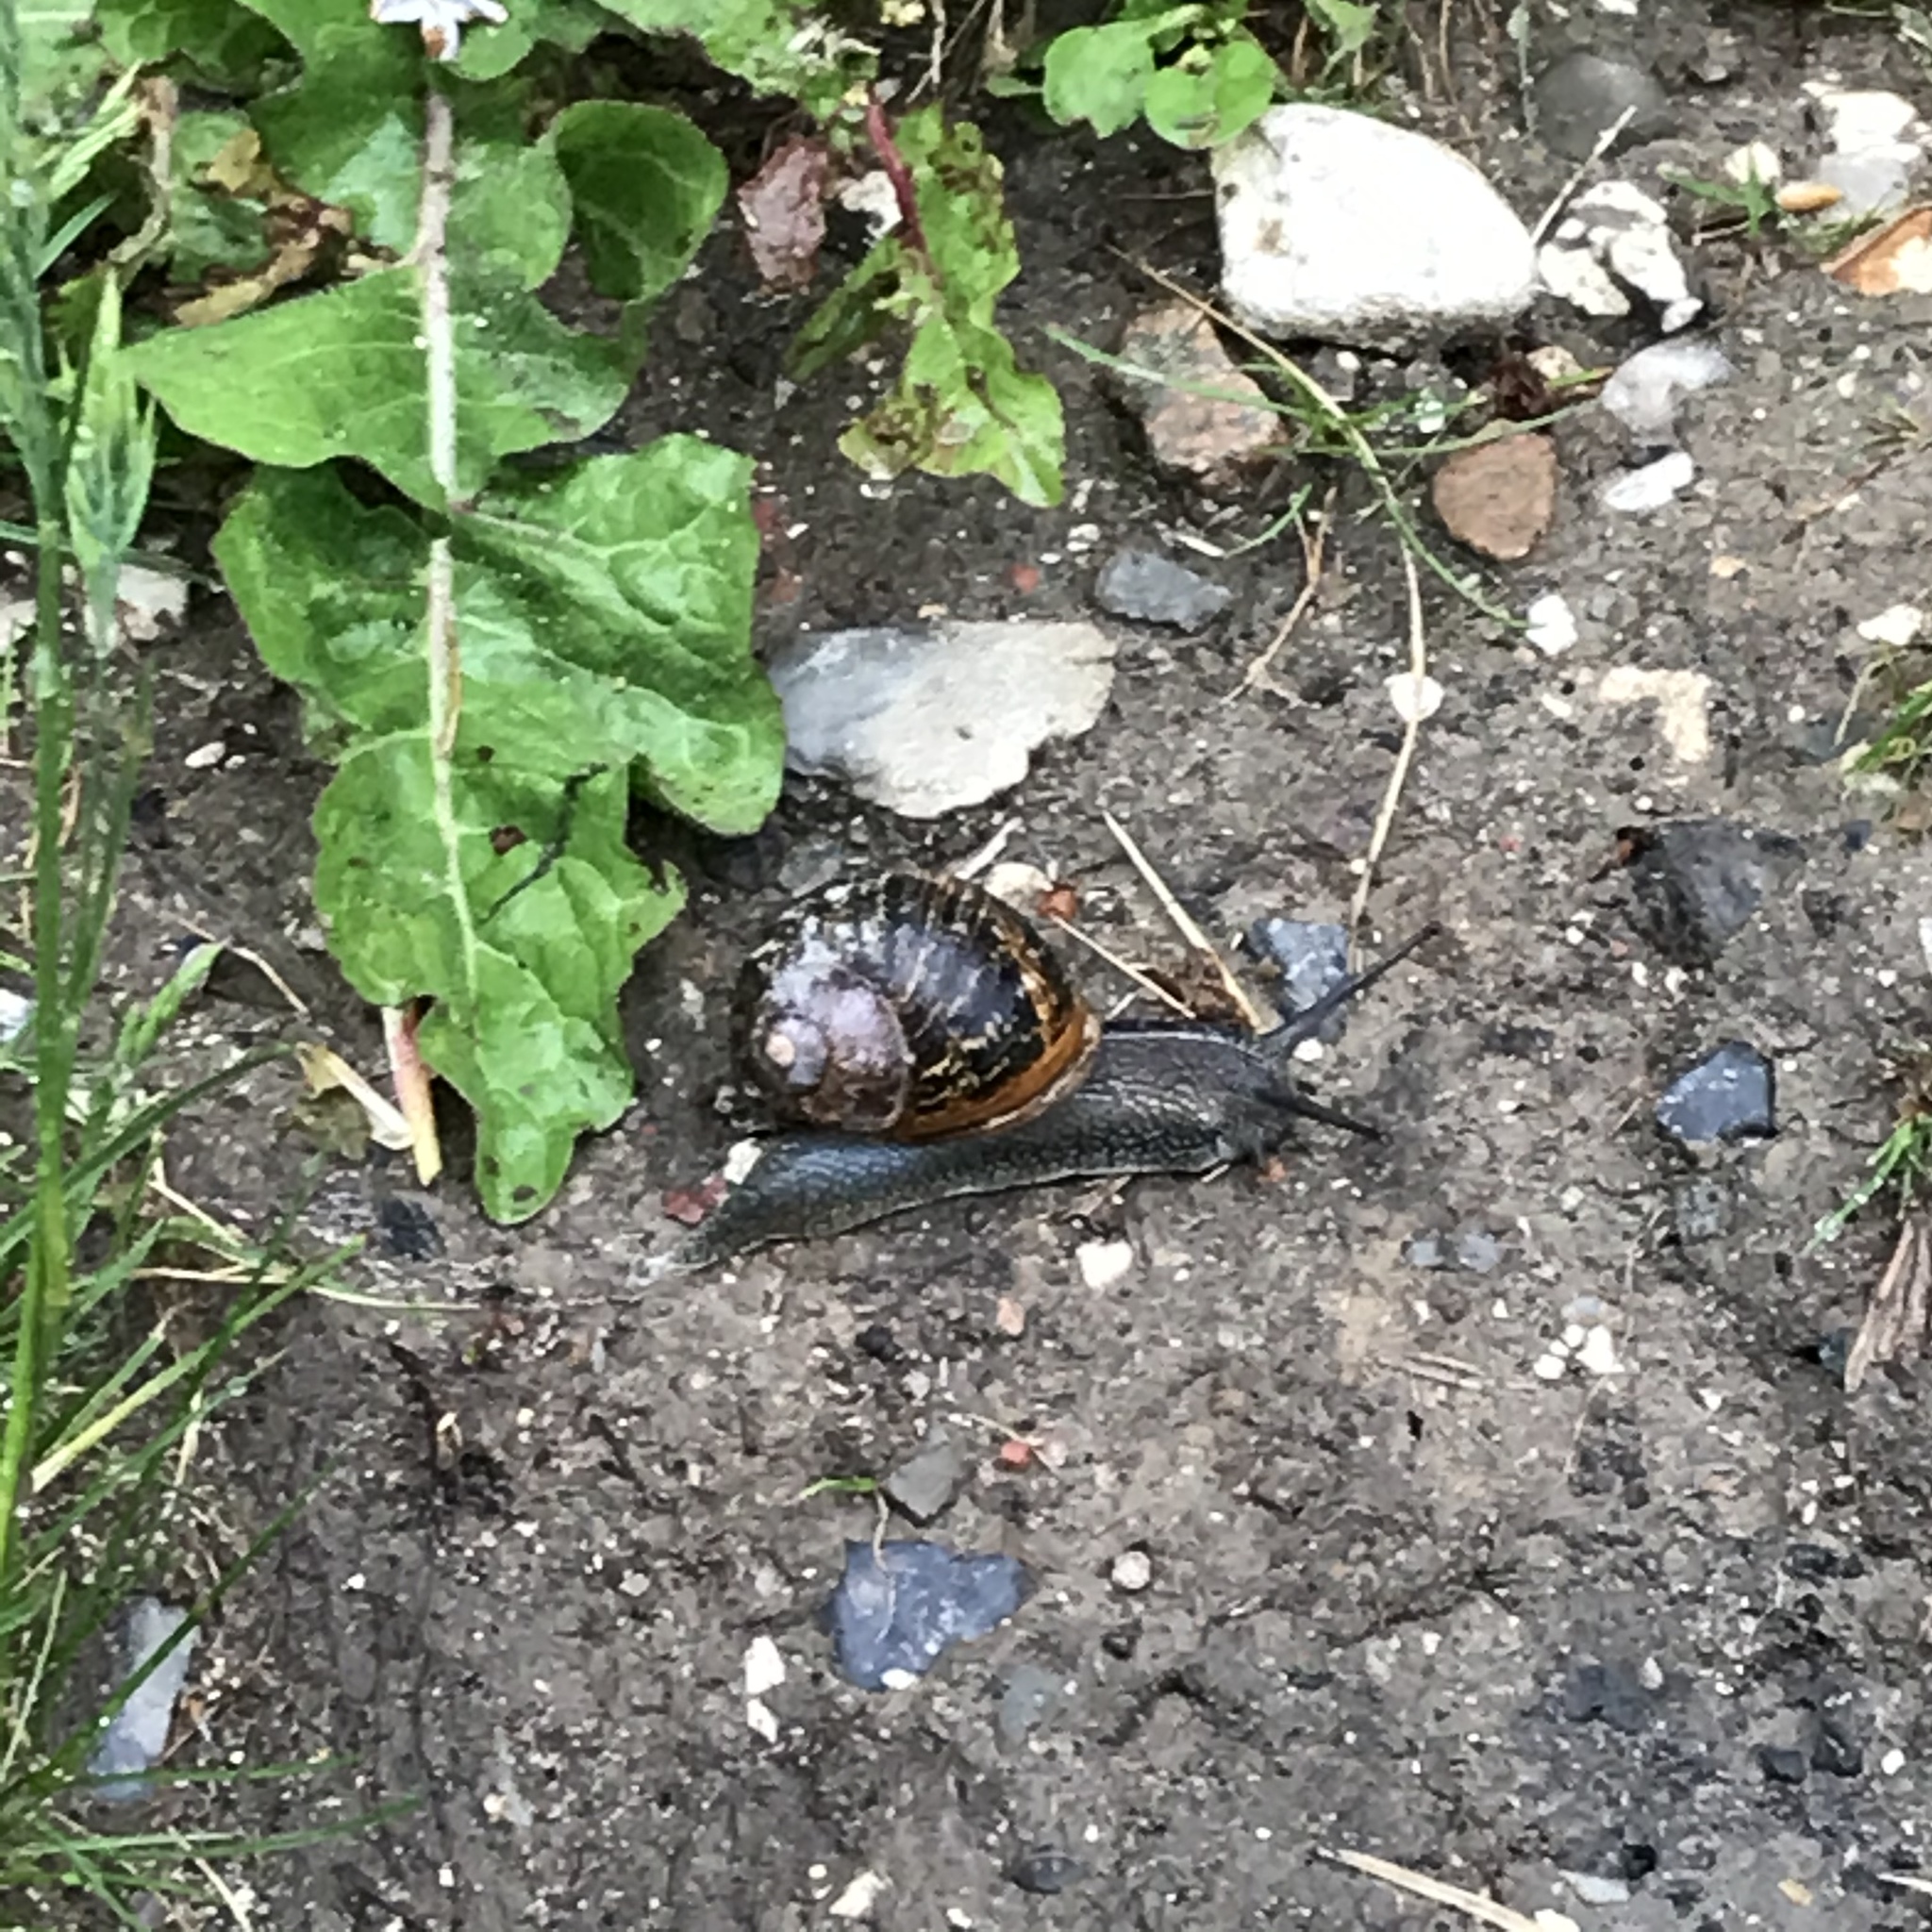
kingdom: Animalia
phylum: Mollusca
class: Gastropoda
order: Stylommatophora
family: Helicidae
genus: Cornu
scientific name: Cornu aspersum
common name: Brown garden snail
